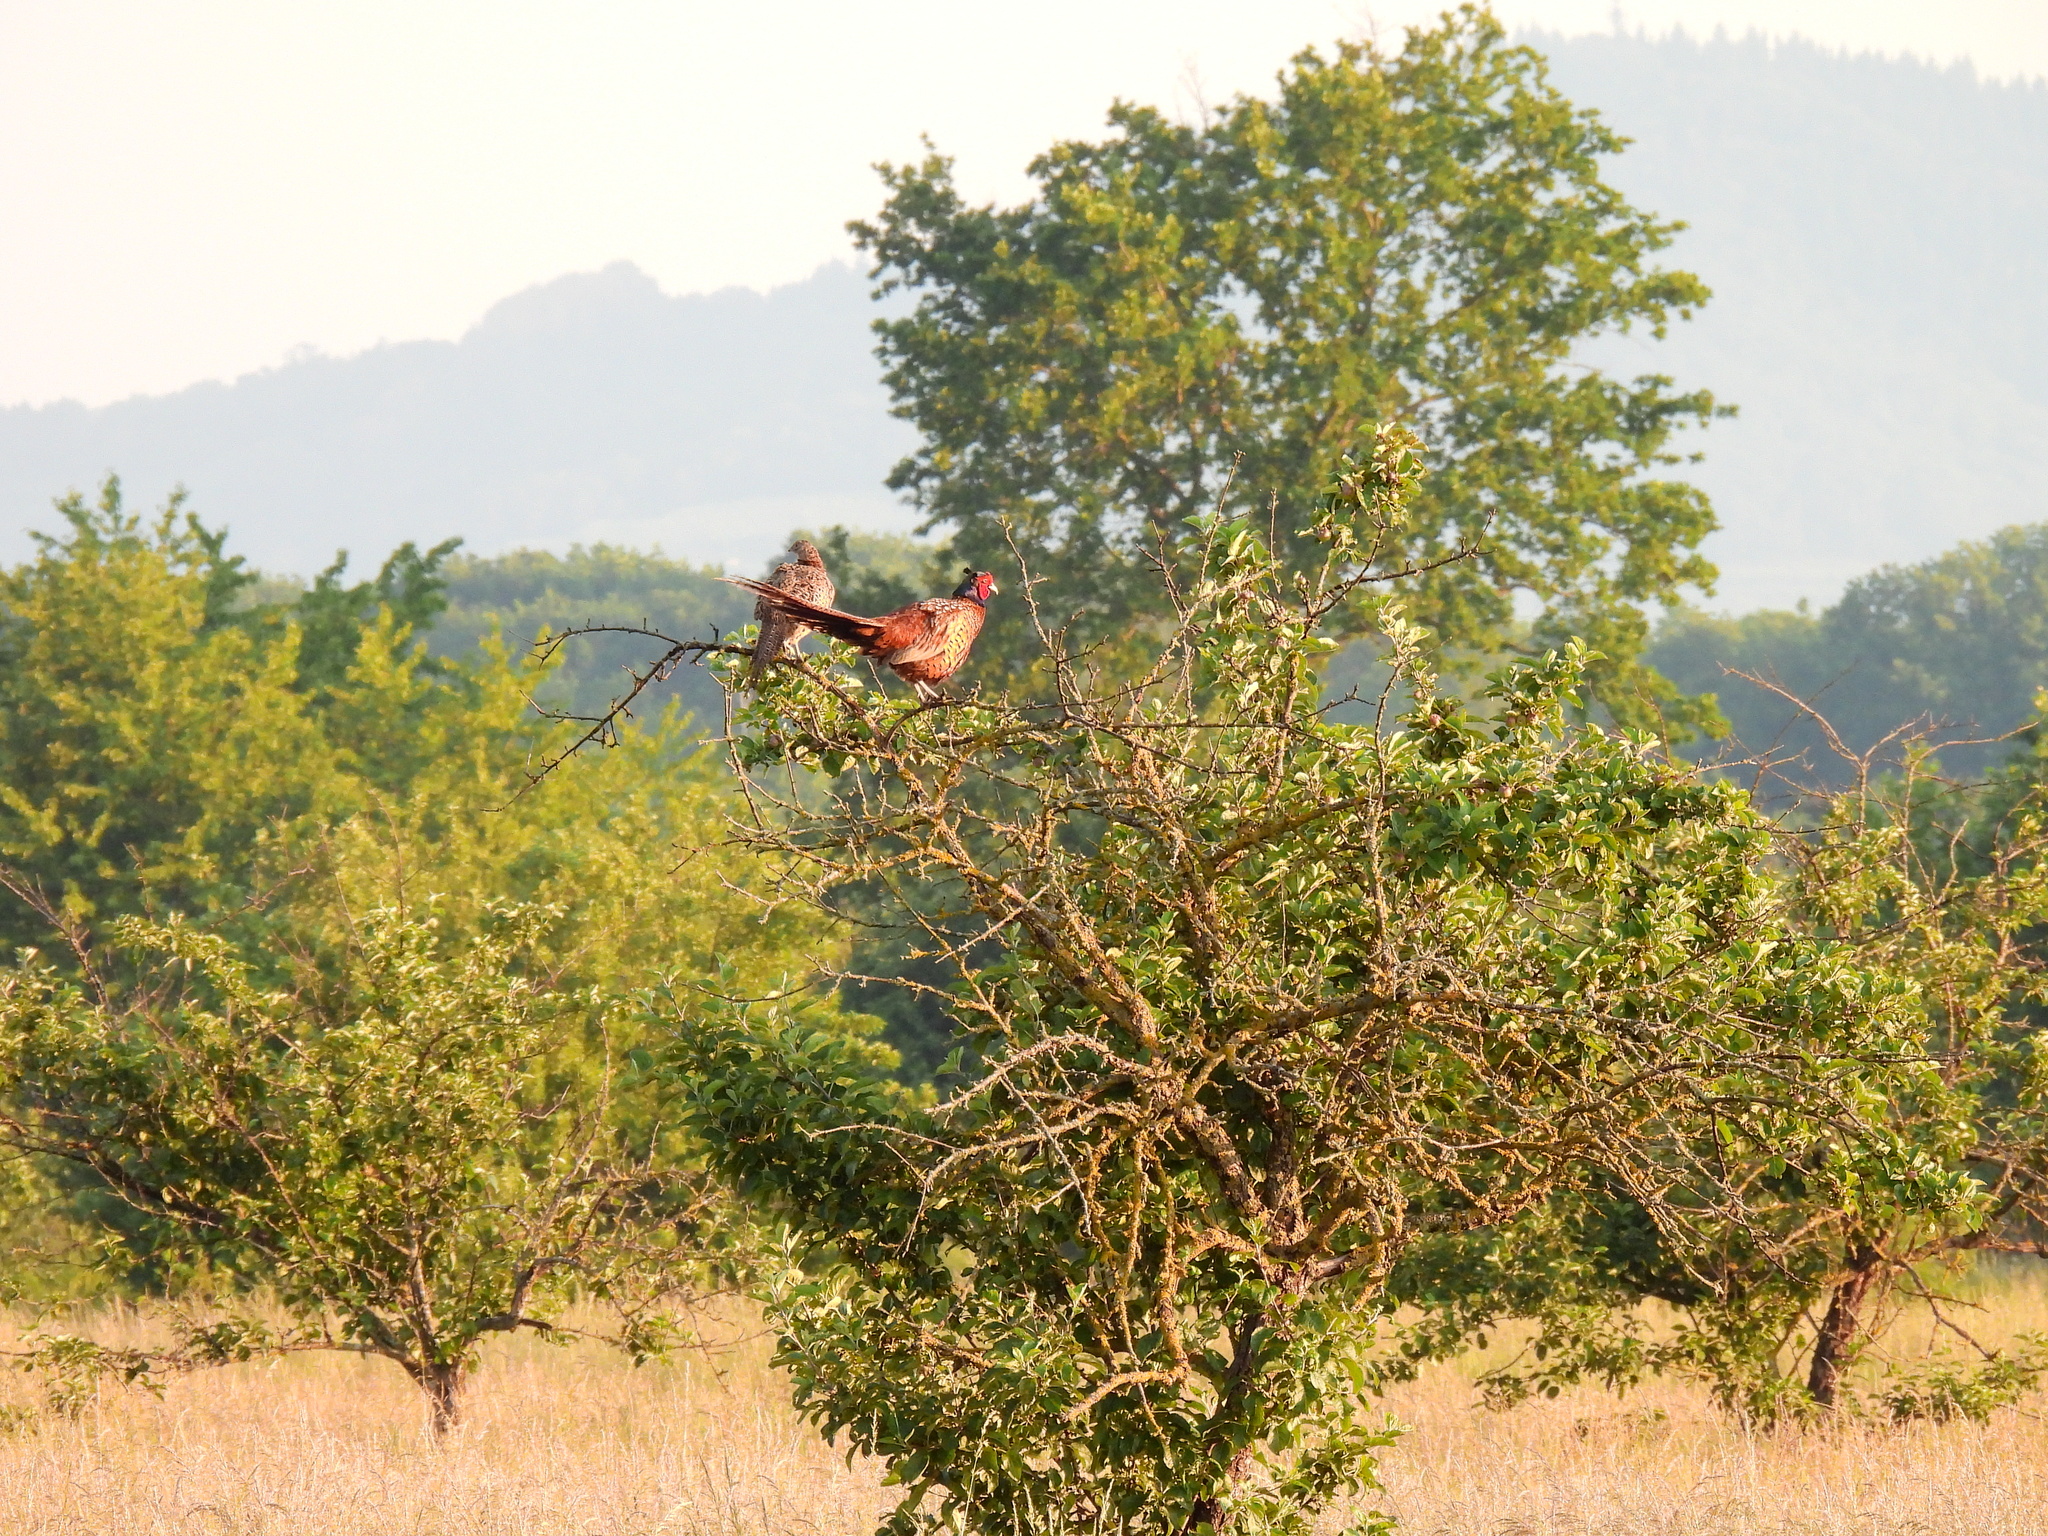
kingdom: Animalia
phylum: Chordata
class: Aves
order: Galliformes
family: Phasianidae
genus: Phasianus
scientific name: Phasianus colchicus
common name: Common pheasant
